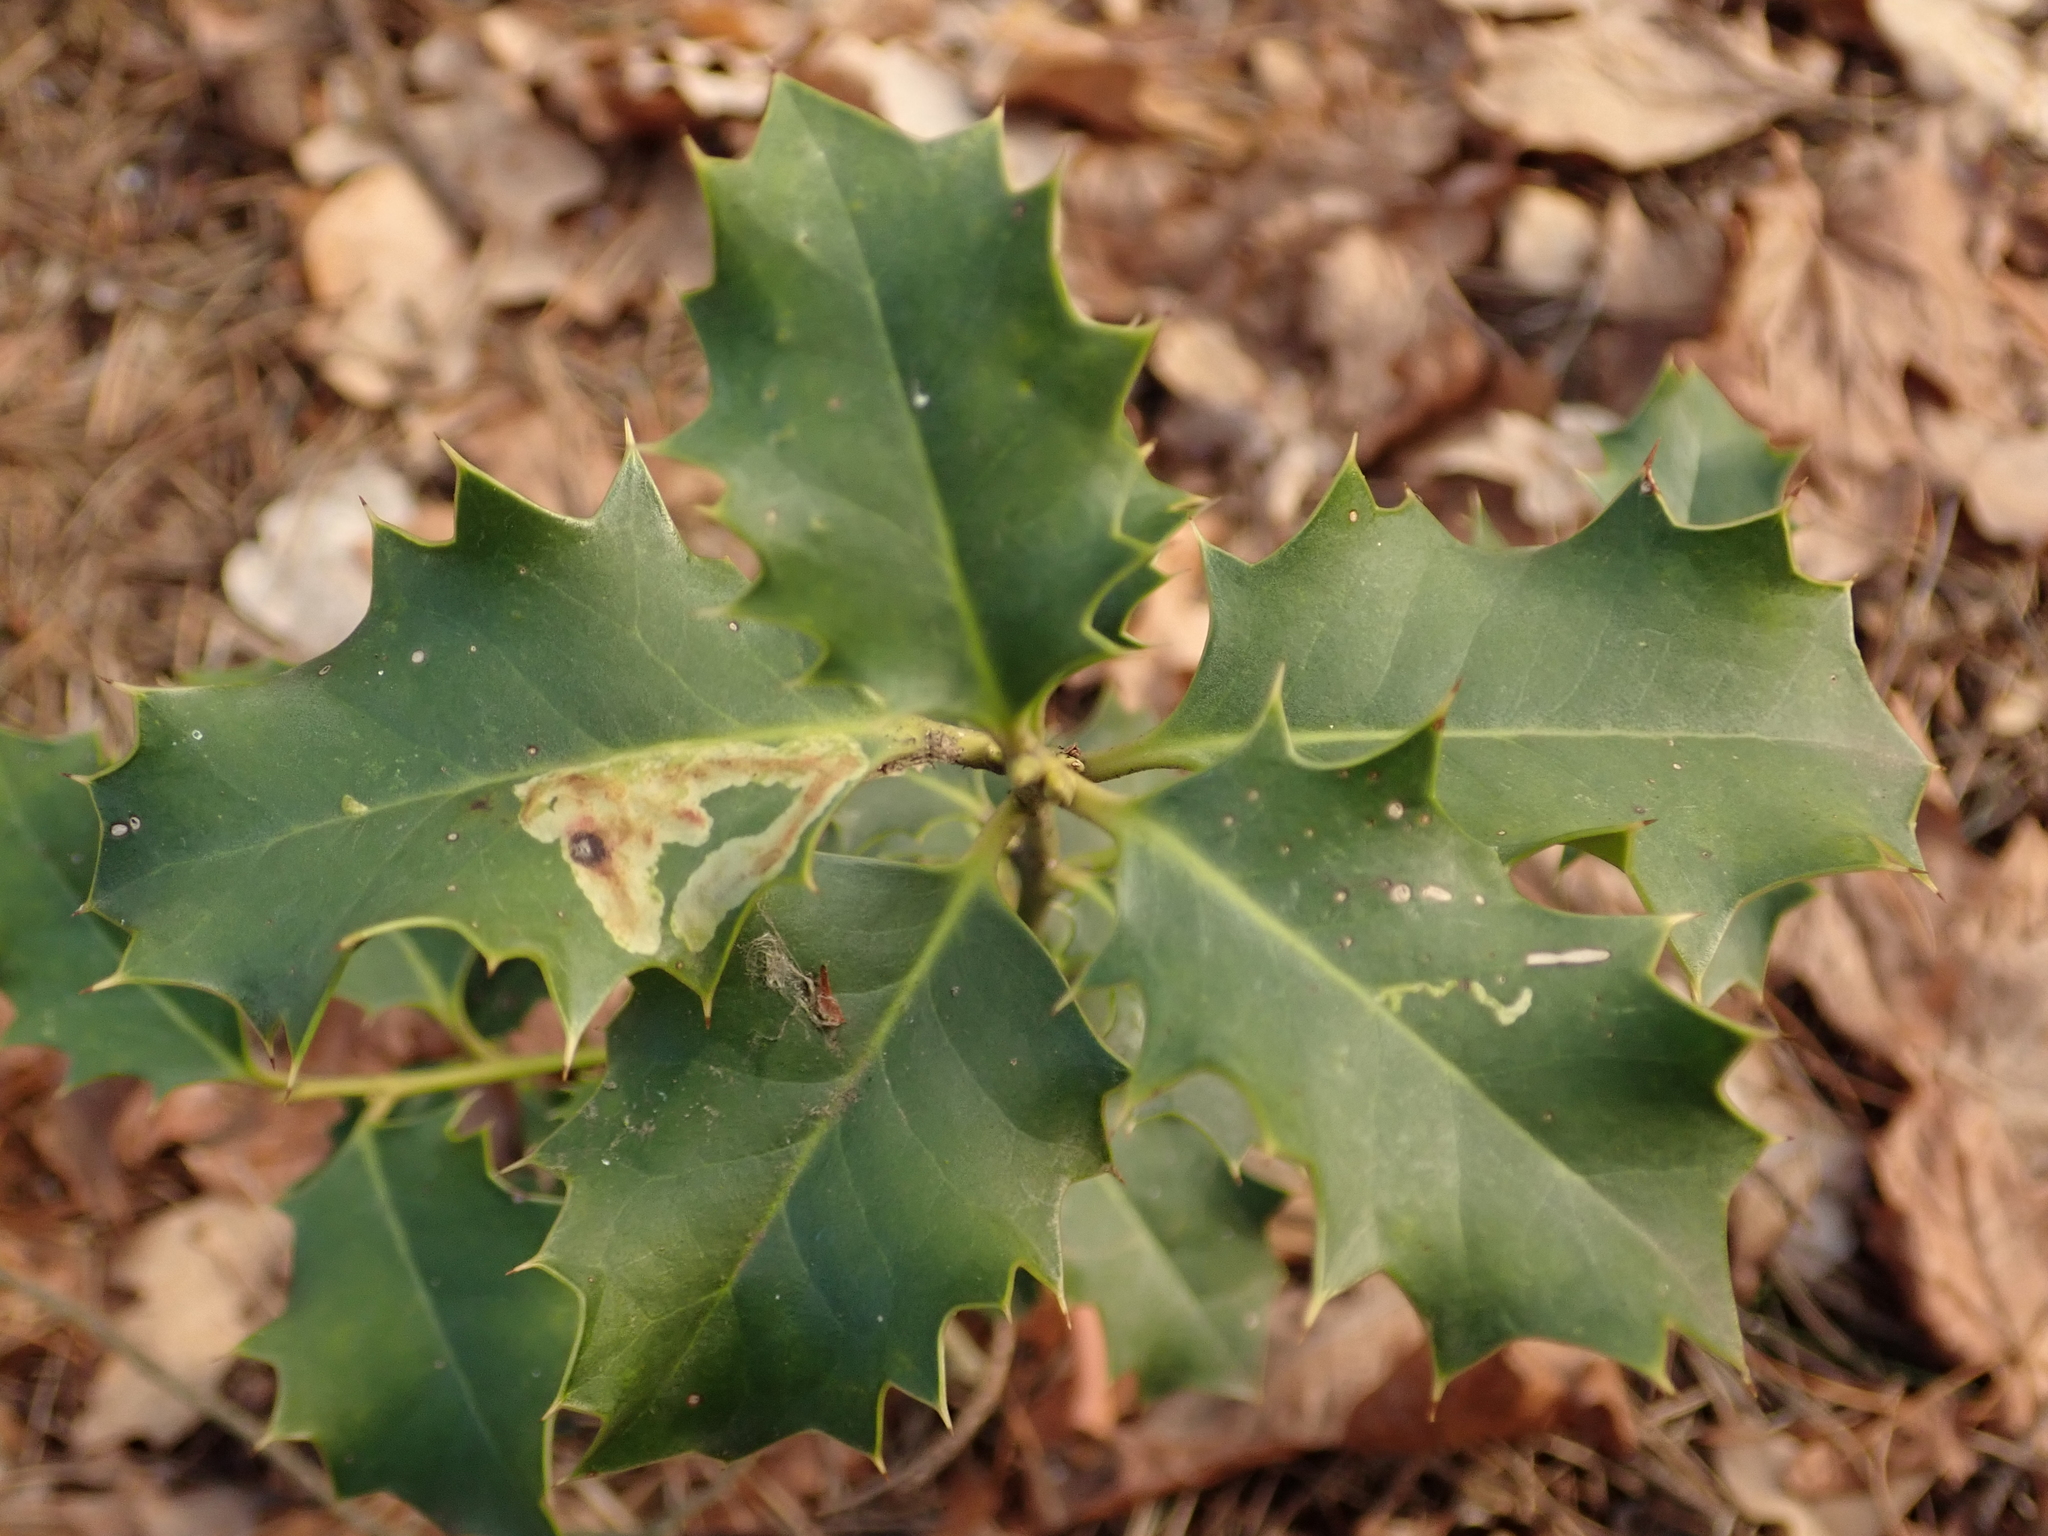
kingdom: Plantae
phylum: Tracheophyta
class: Magnoliopsida
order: Aquifoliales
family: Aquifoliaceae
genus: Ilex
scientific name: Ilex aquifolium
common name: English holly
